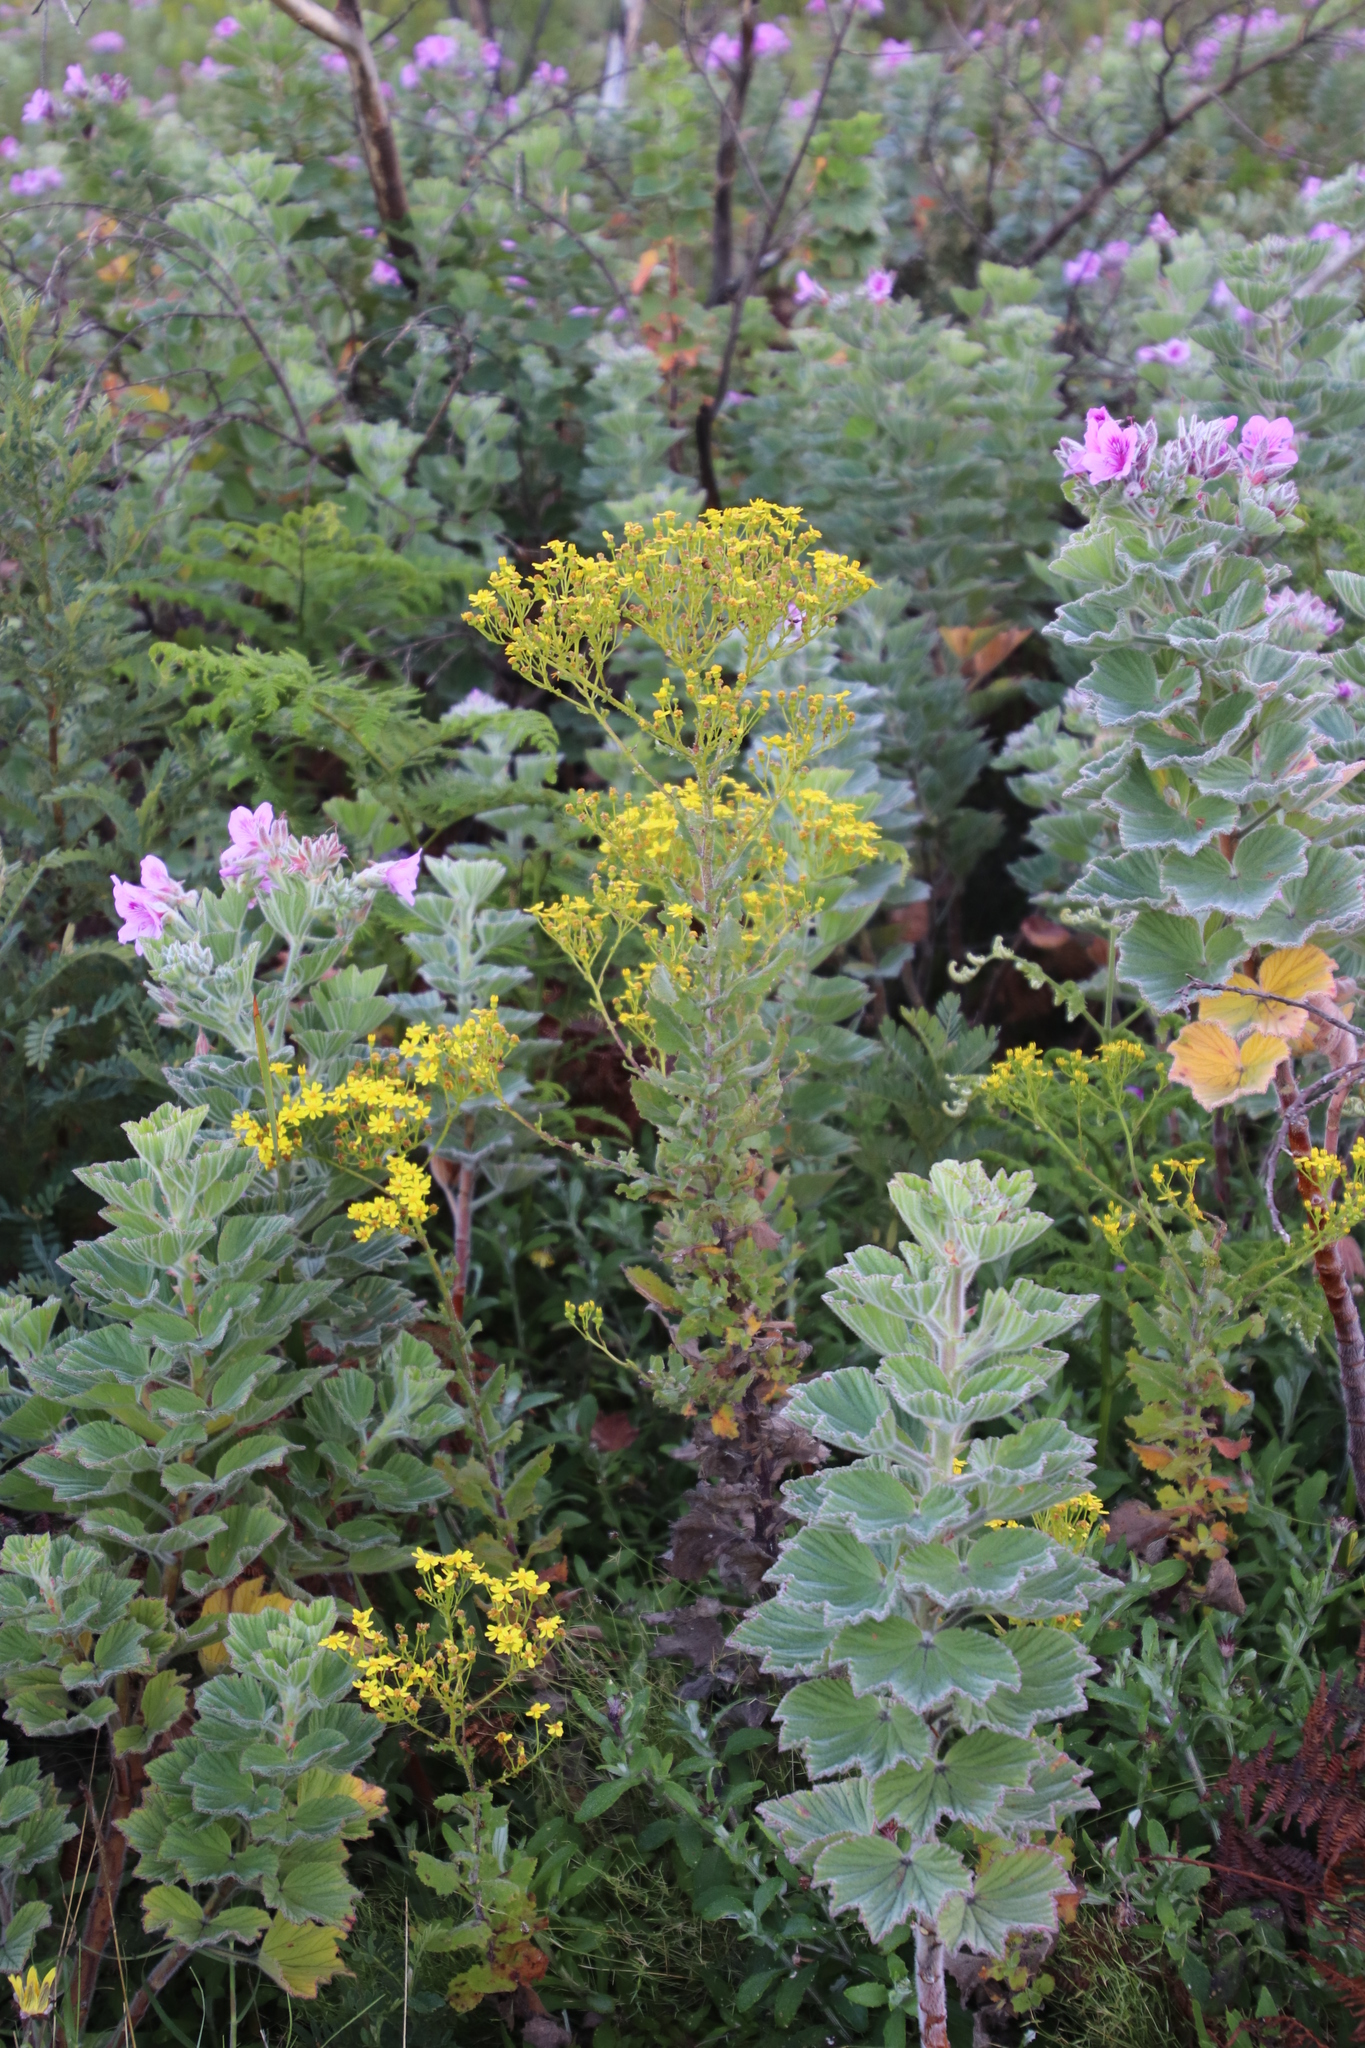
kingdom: Plantae
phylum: Tracheophyta
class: Magnoliopsida
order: Asterales
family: Asteraceae
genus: Senecio
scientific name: Senecio subcanescens
